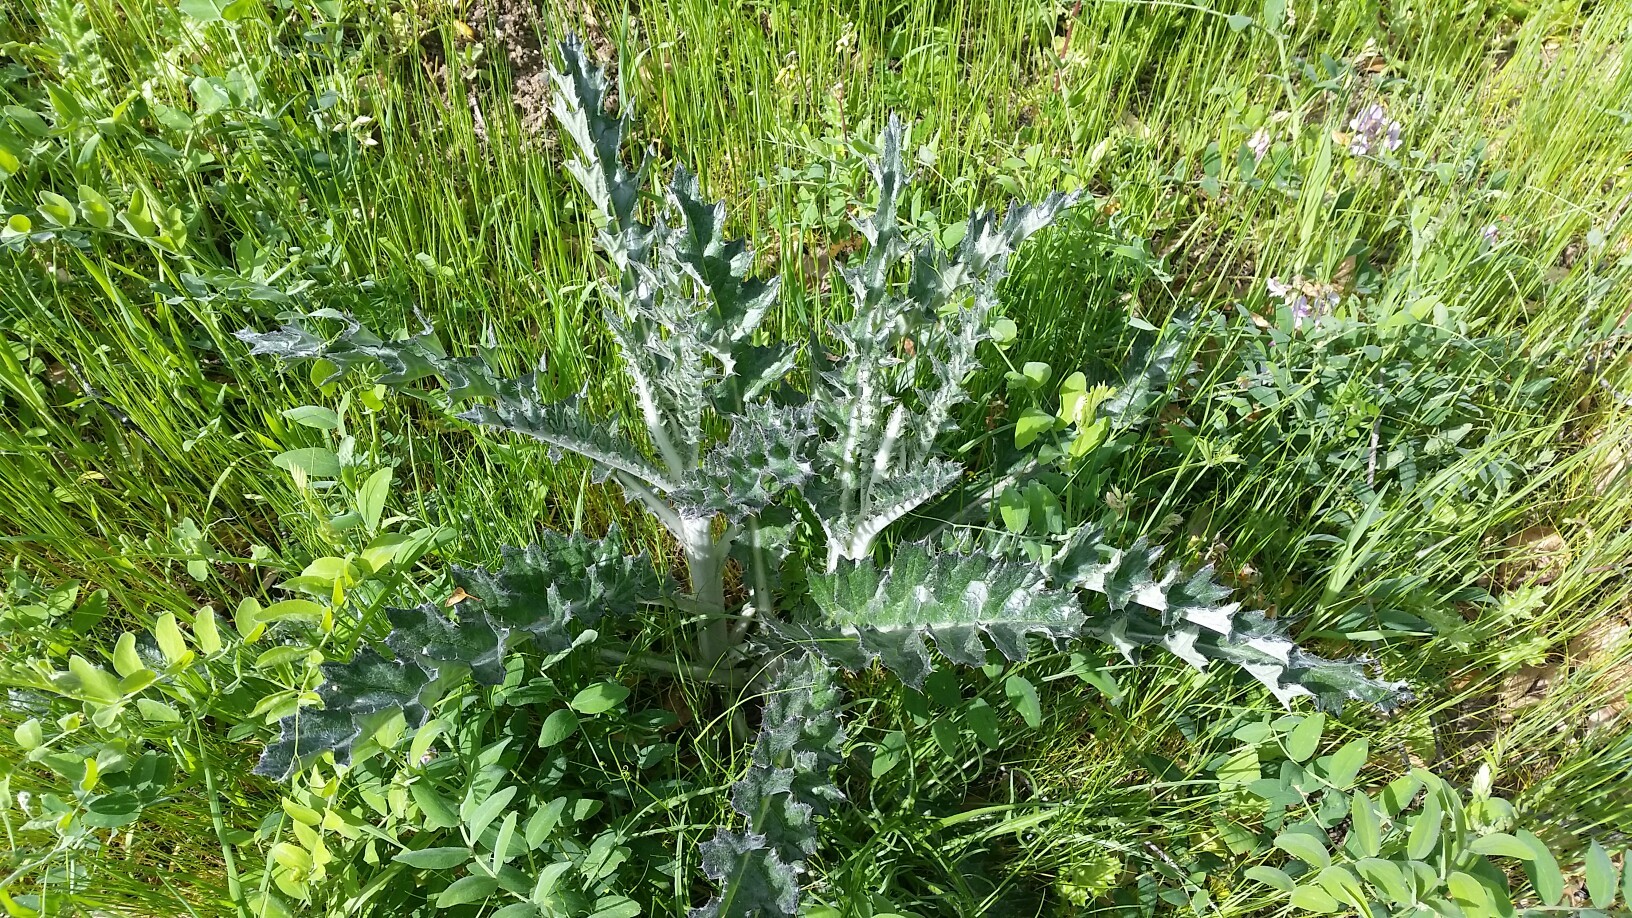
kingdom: Plantae
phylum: Tracheophyta
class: Magnoliopsida
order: Asterales
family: Asteraceae
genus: Cirsium
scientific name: Cirsium occidentale
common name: Western thistle
